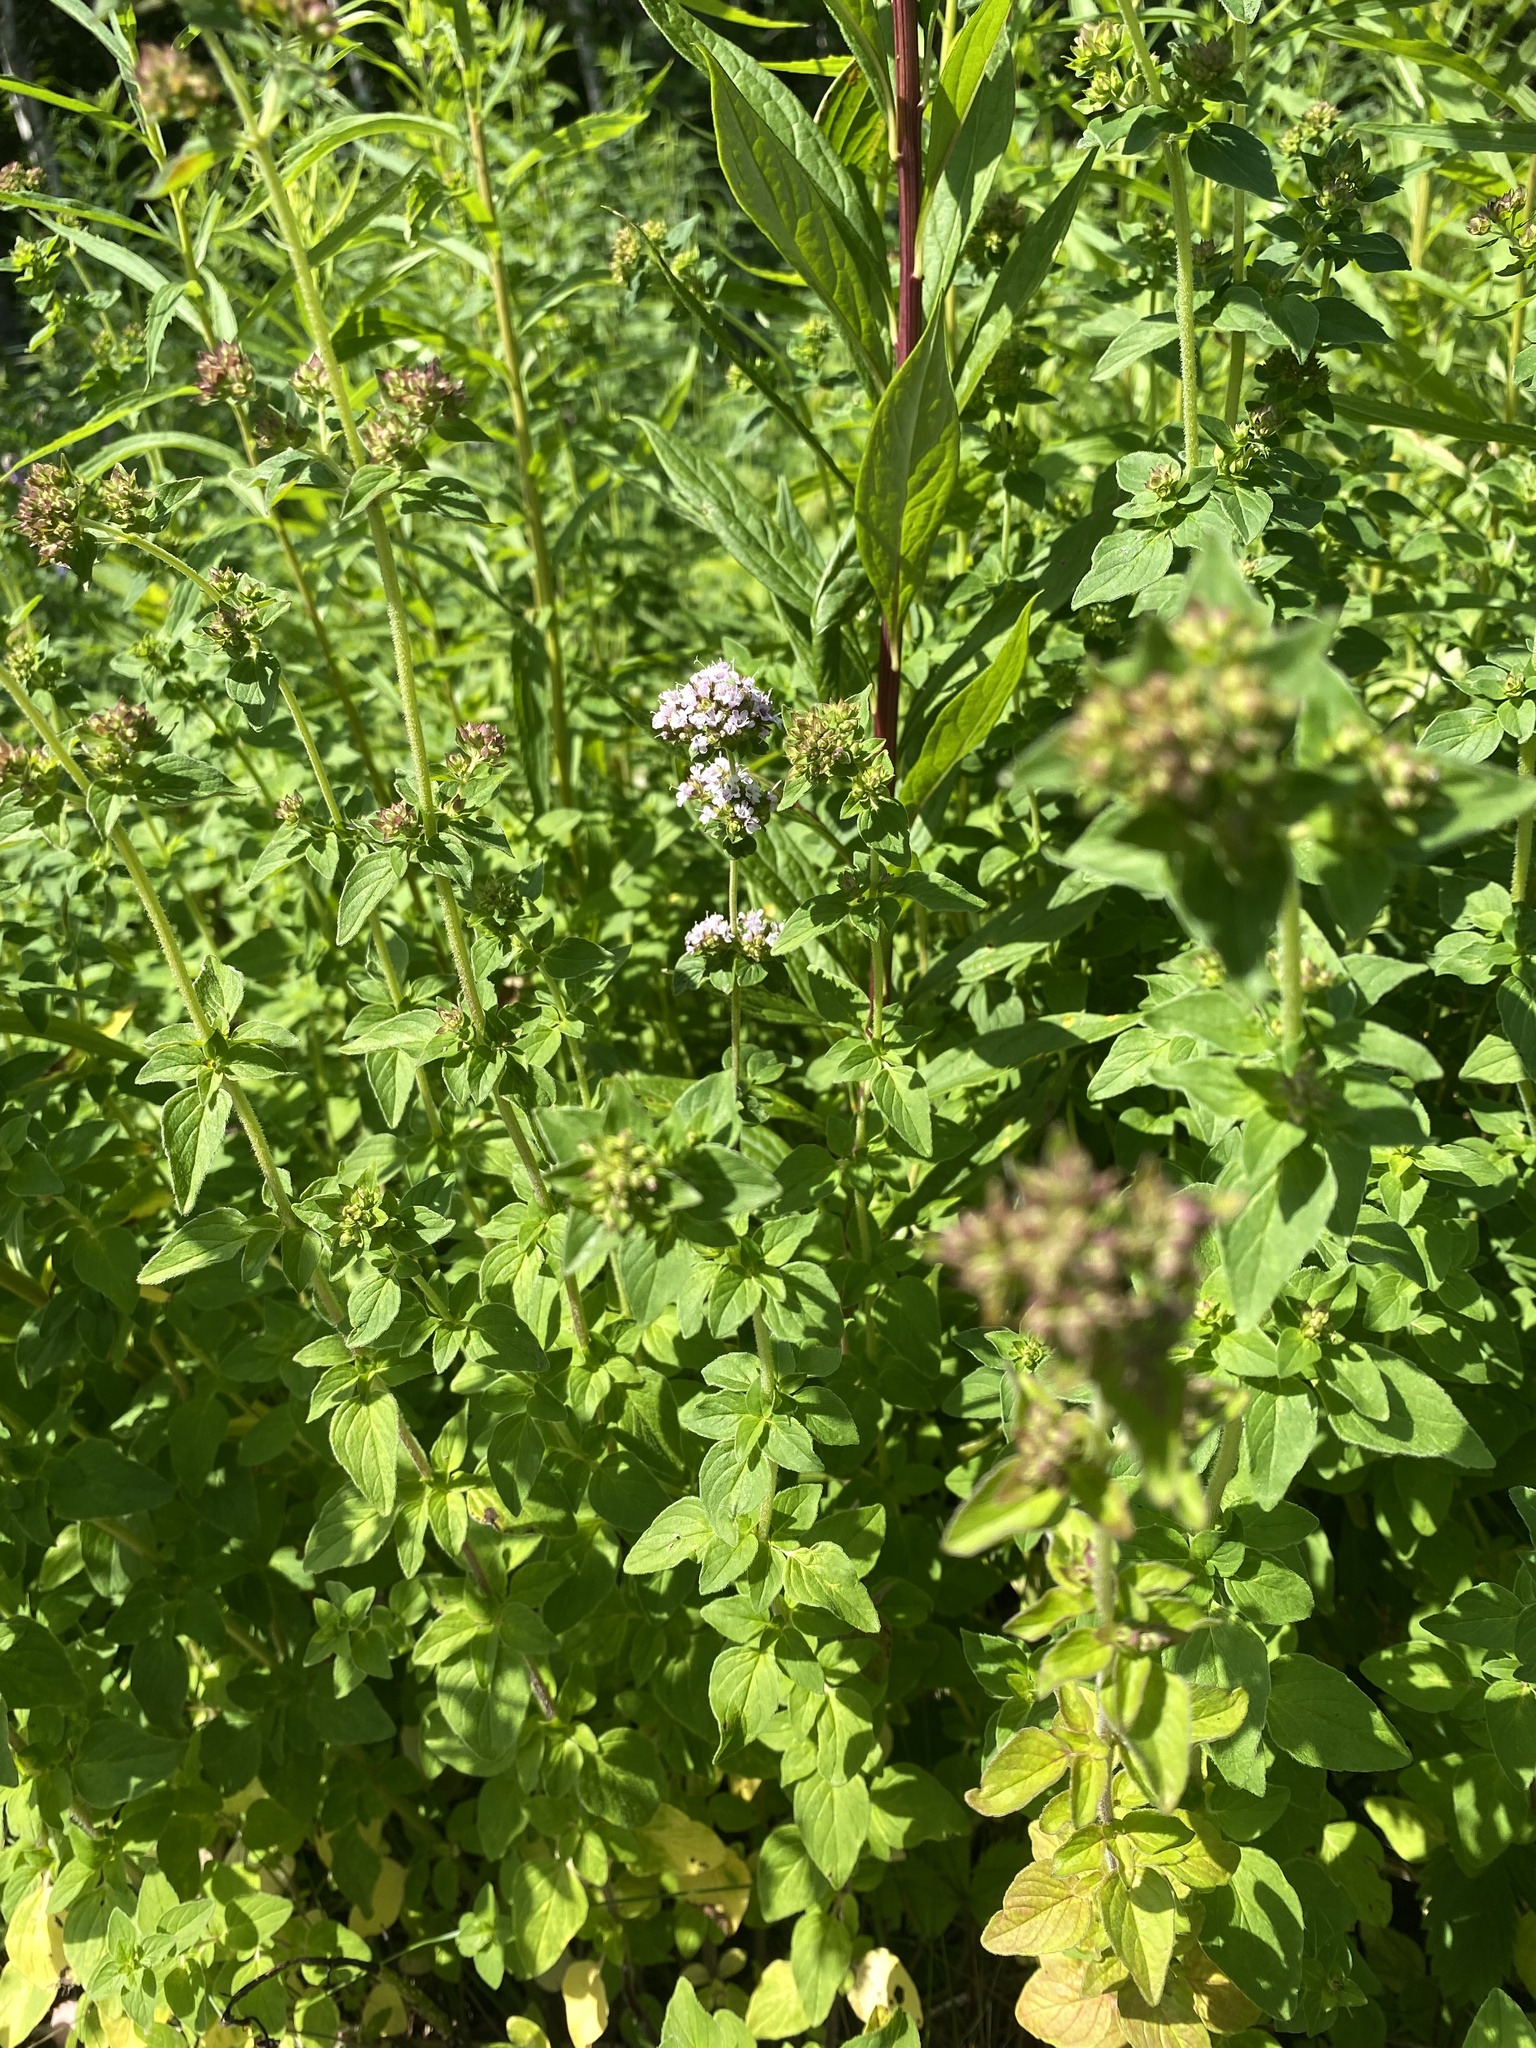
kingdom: Plantae
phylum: Tracheophyta
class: Magnoliopsida
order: Lamiales
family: Lamiaceae
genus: Origanum
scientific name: Origanum vulgare
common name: Wild marjoram
